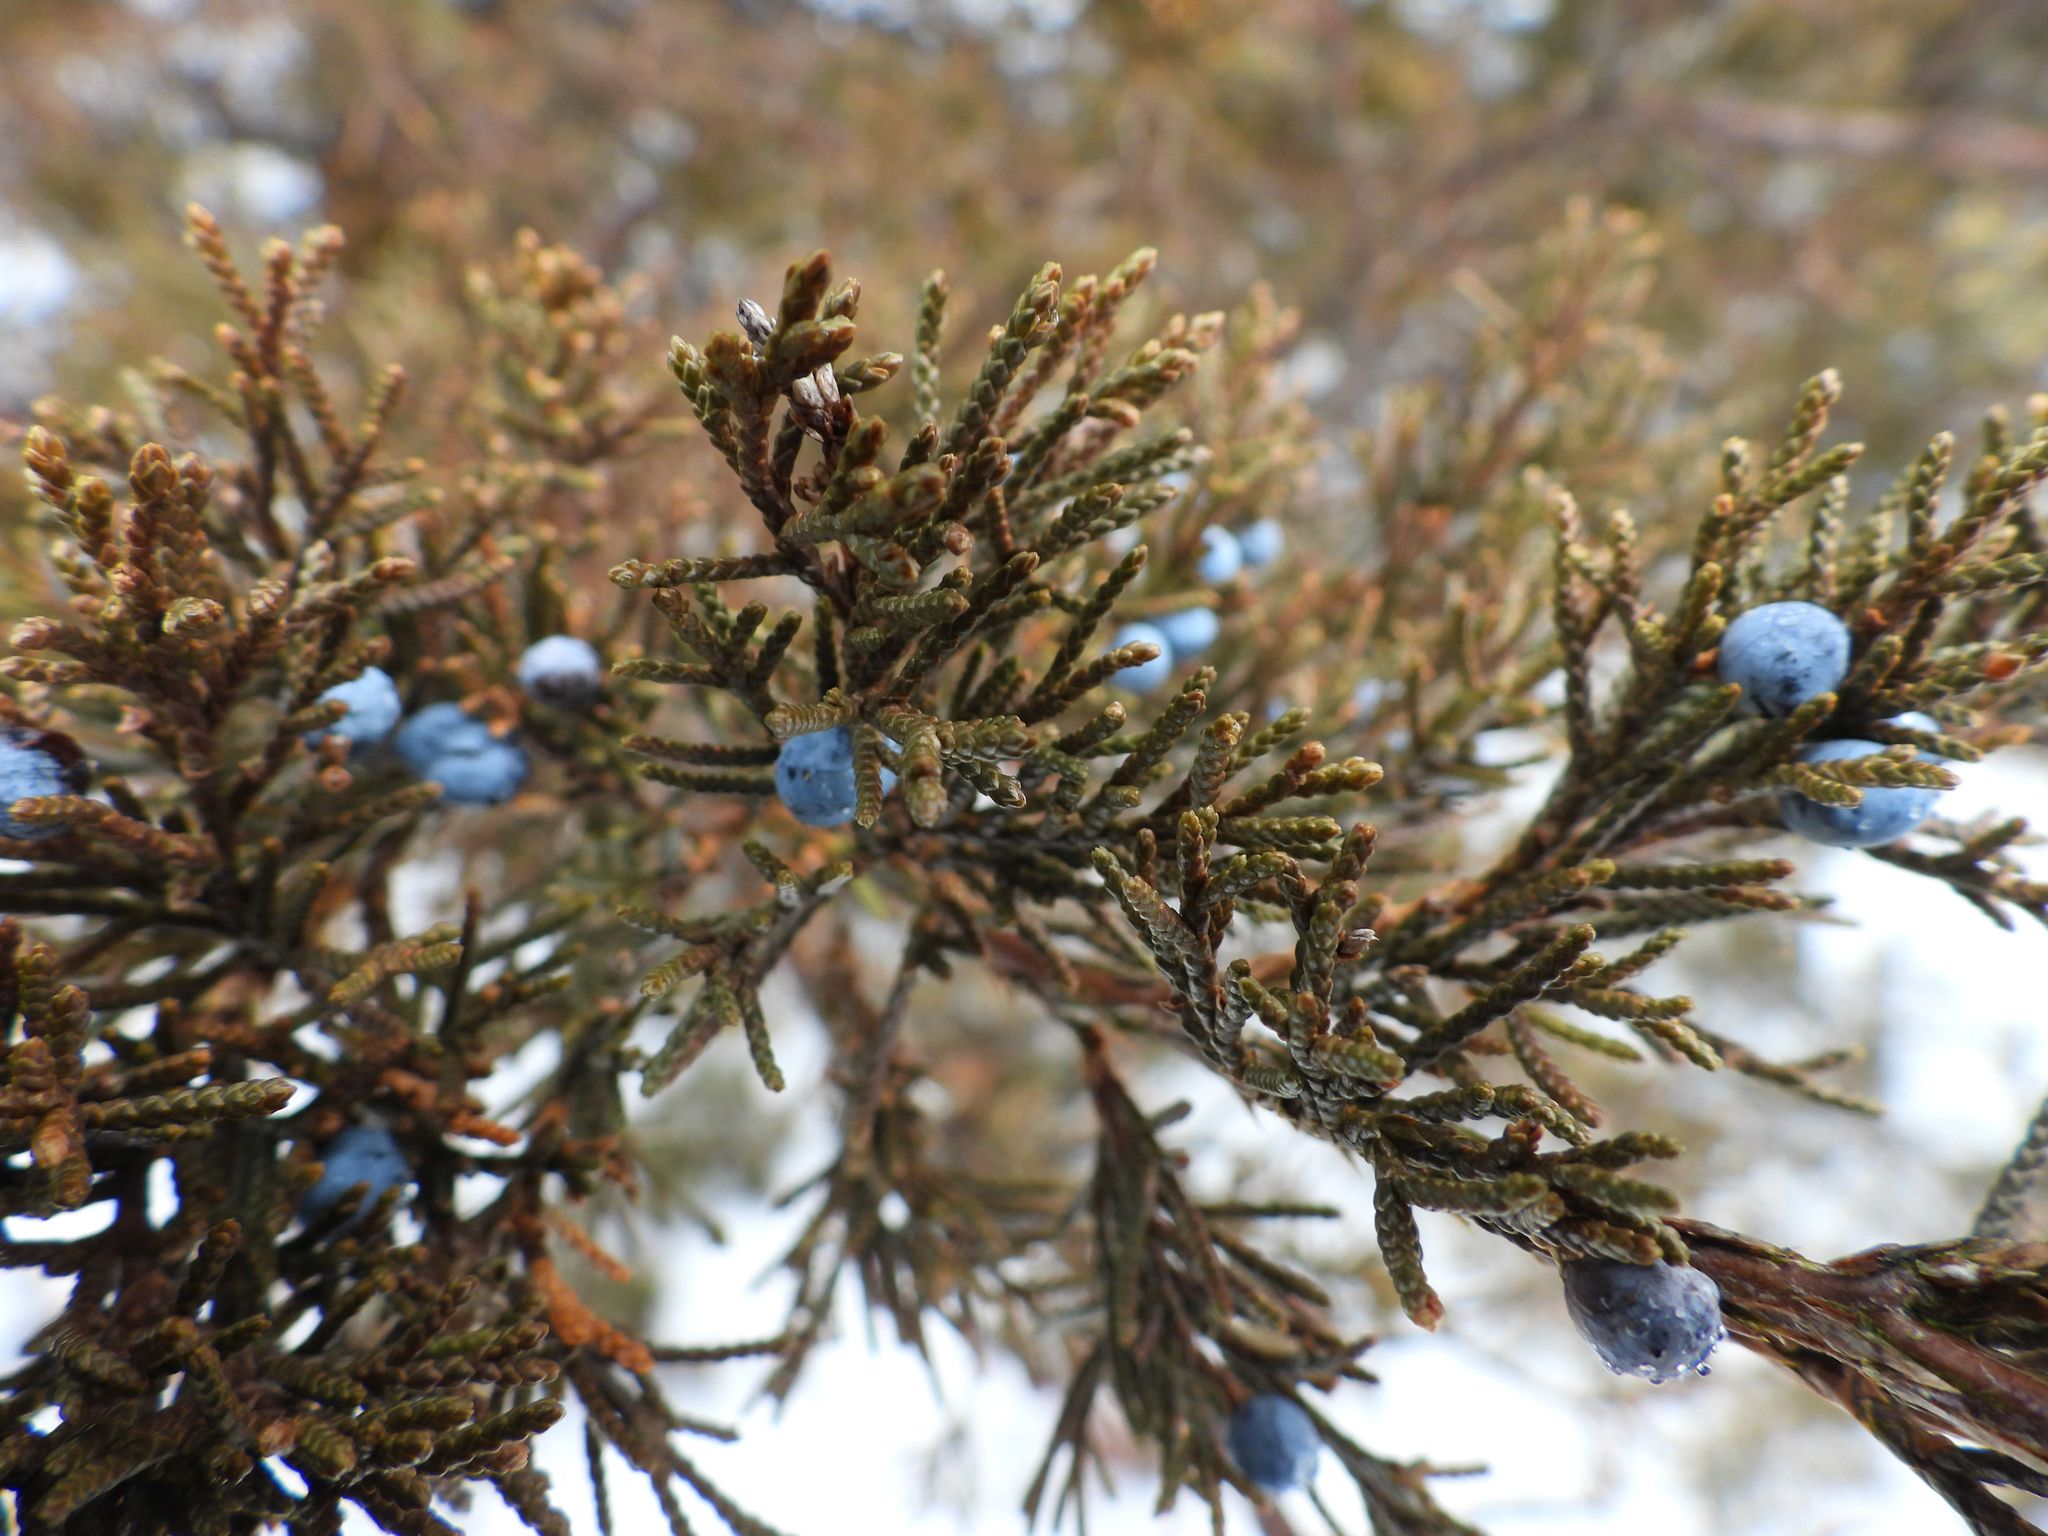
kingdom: Plantae
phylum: Tracheophyta
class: Pinopsida
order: Pinales
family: Cupressaceae
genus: Juniperus
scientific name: Juniperus virginiana
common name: Red juniper
